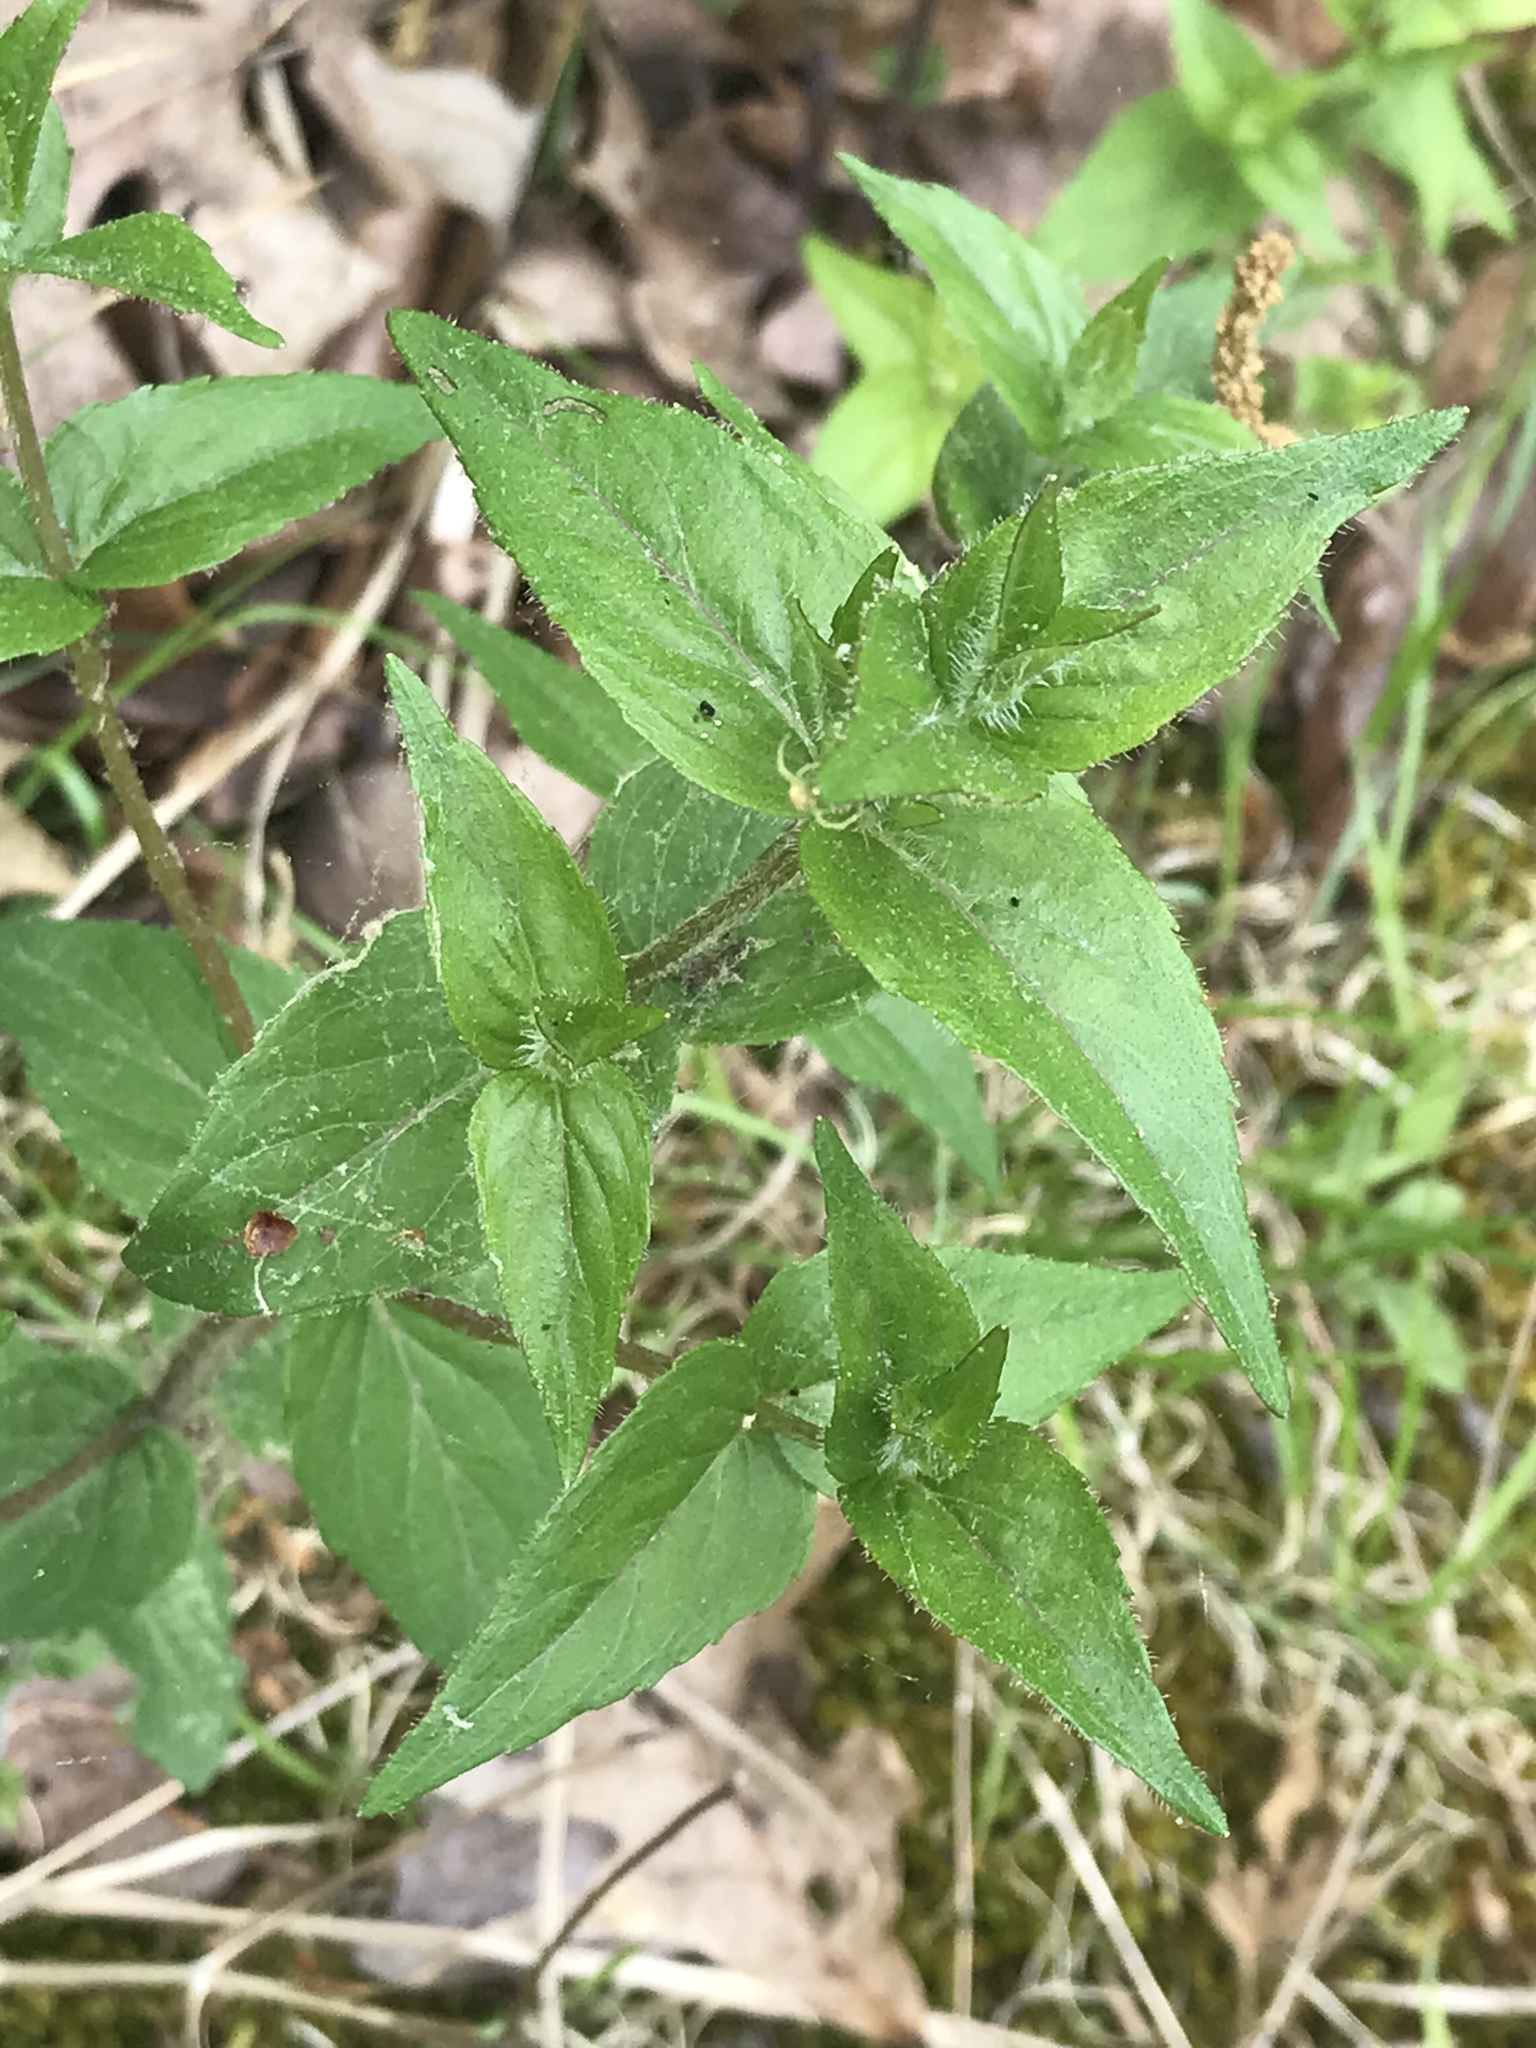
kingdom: Plantae
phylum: Tracheophyta
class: Magnoliopsida
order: Lamiales
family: Lamiaceae
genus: Cunila
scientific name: Cunila origanoides
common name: American dittany
